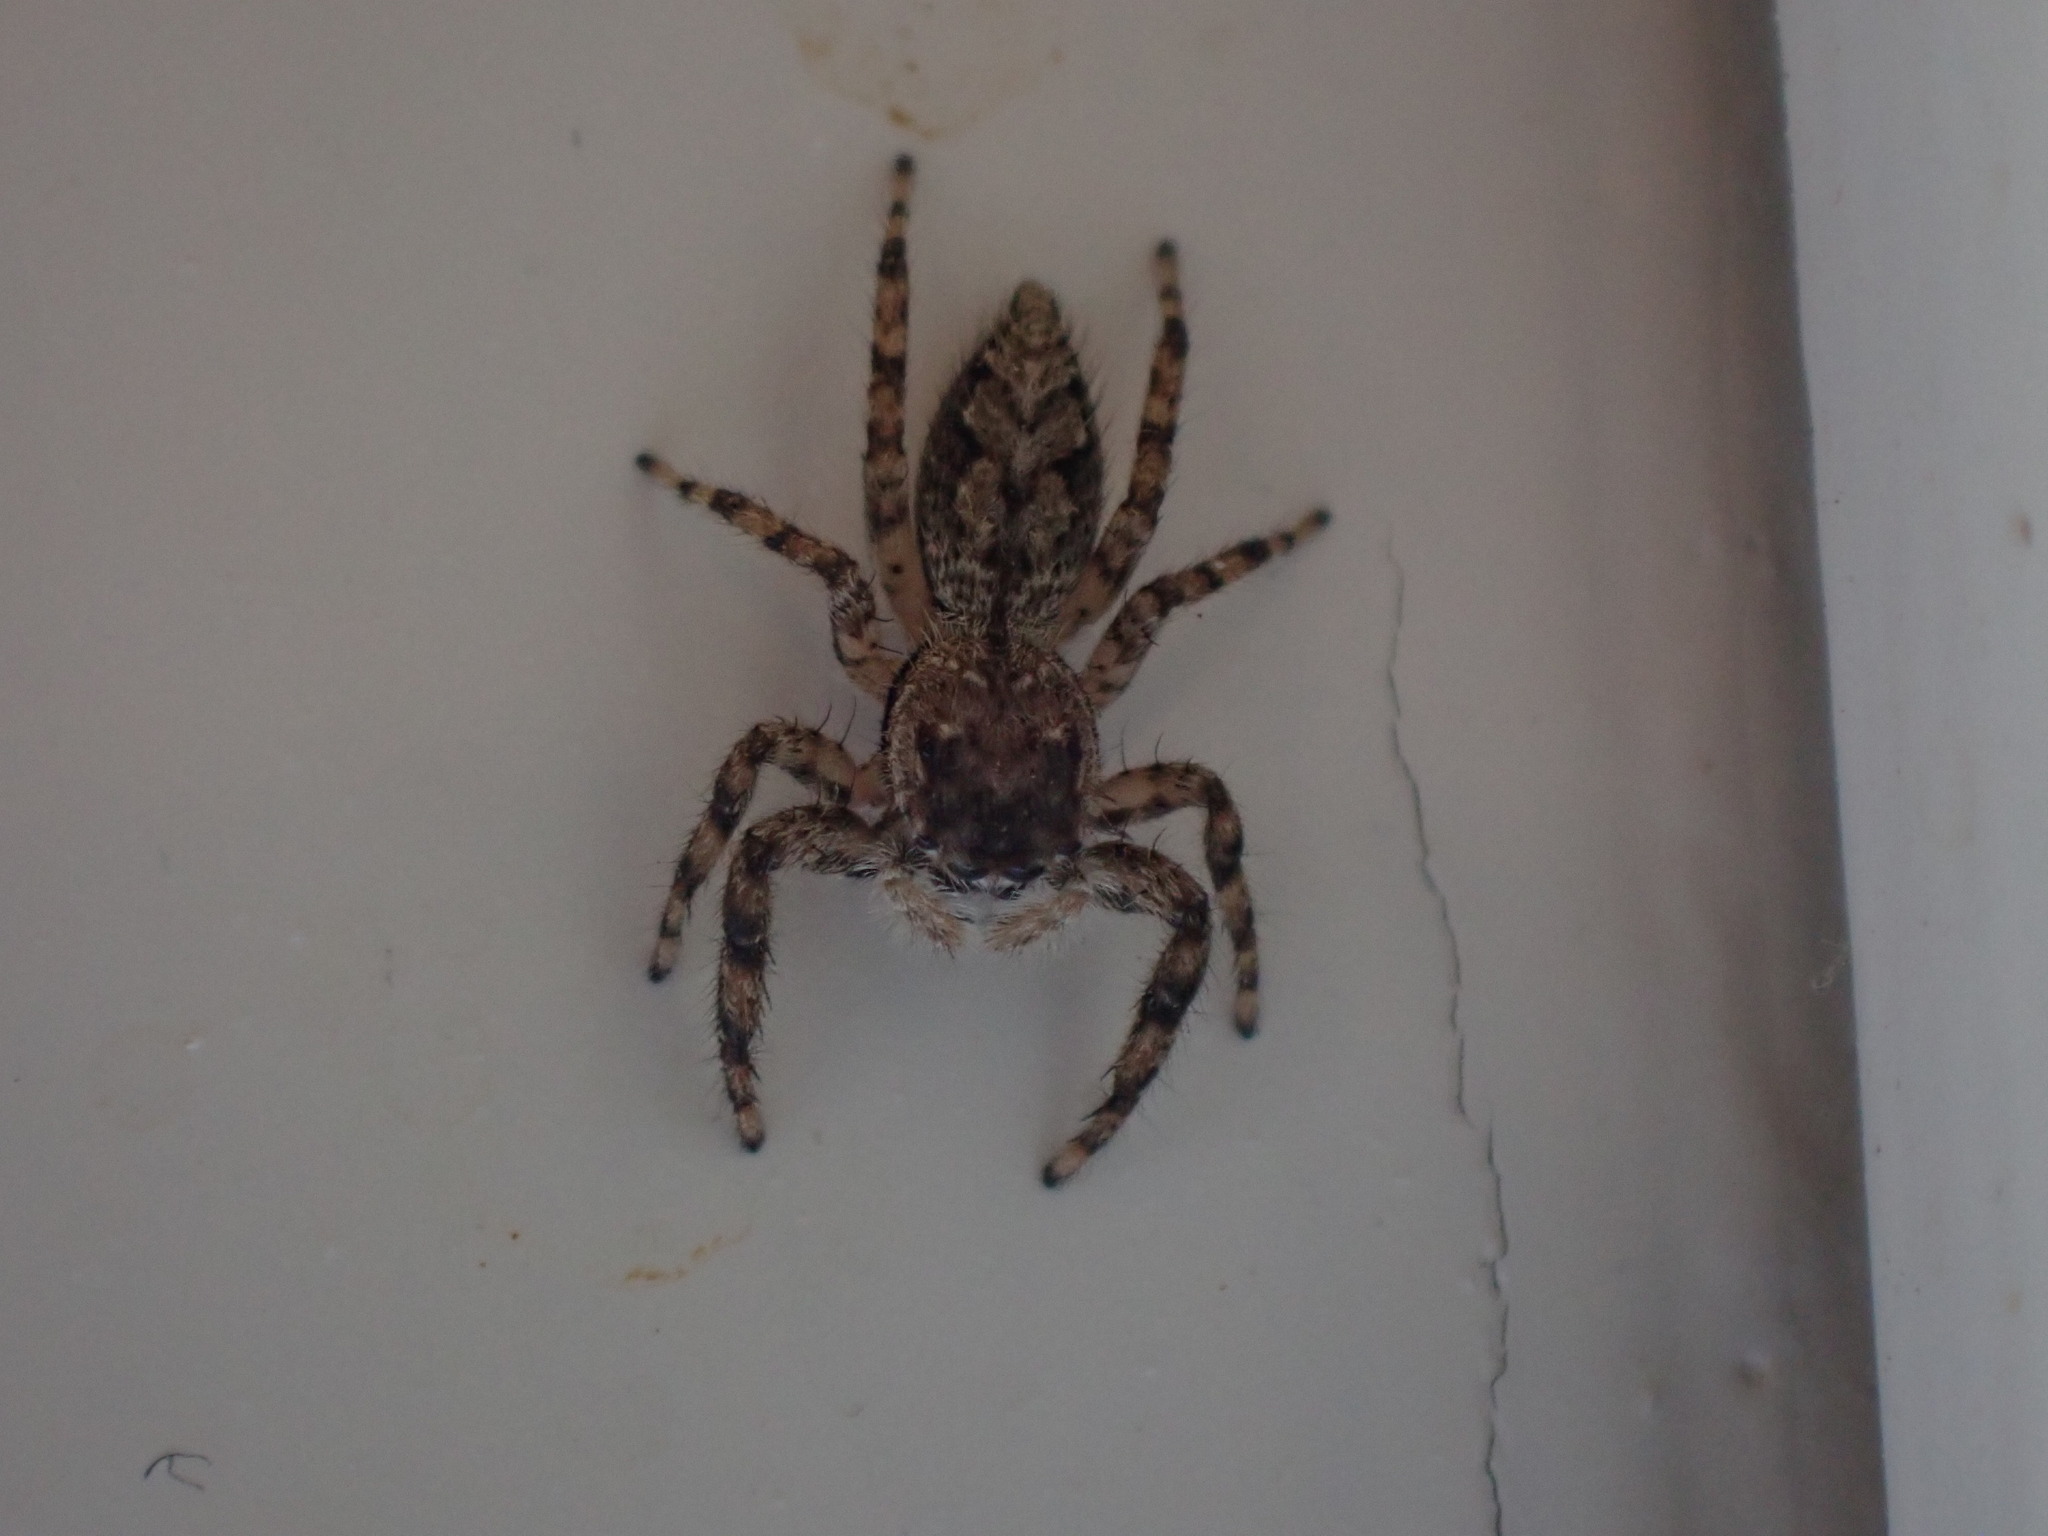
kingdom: Animalia
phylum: Arthropoda
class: Arachnida
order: Araneae
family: Salticidae
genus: Platycryptus
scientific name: Platycryptus undatus
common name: Tan jumping spider
